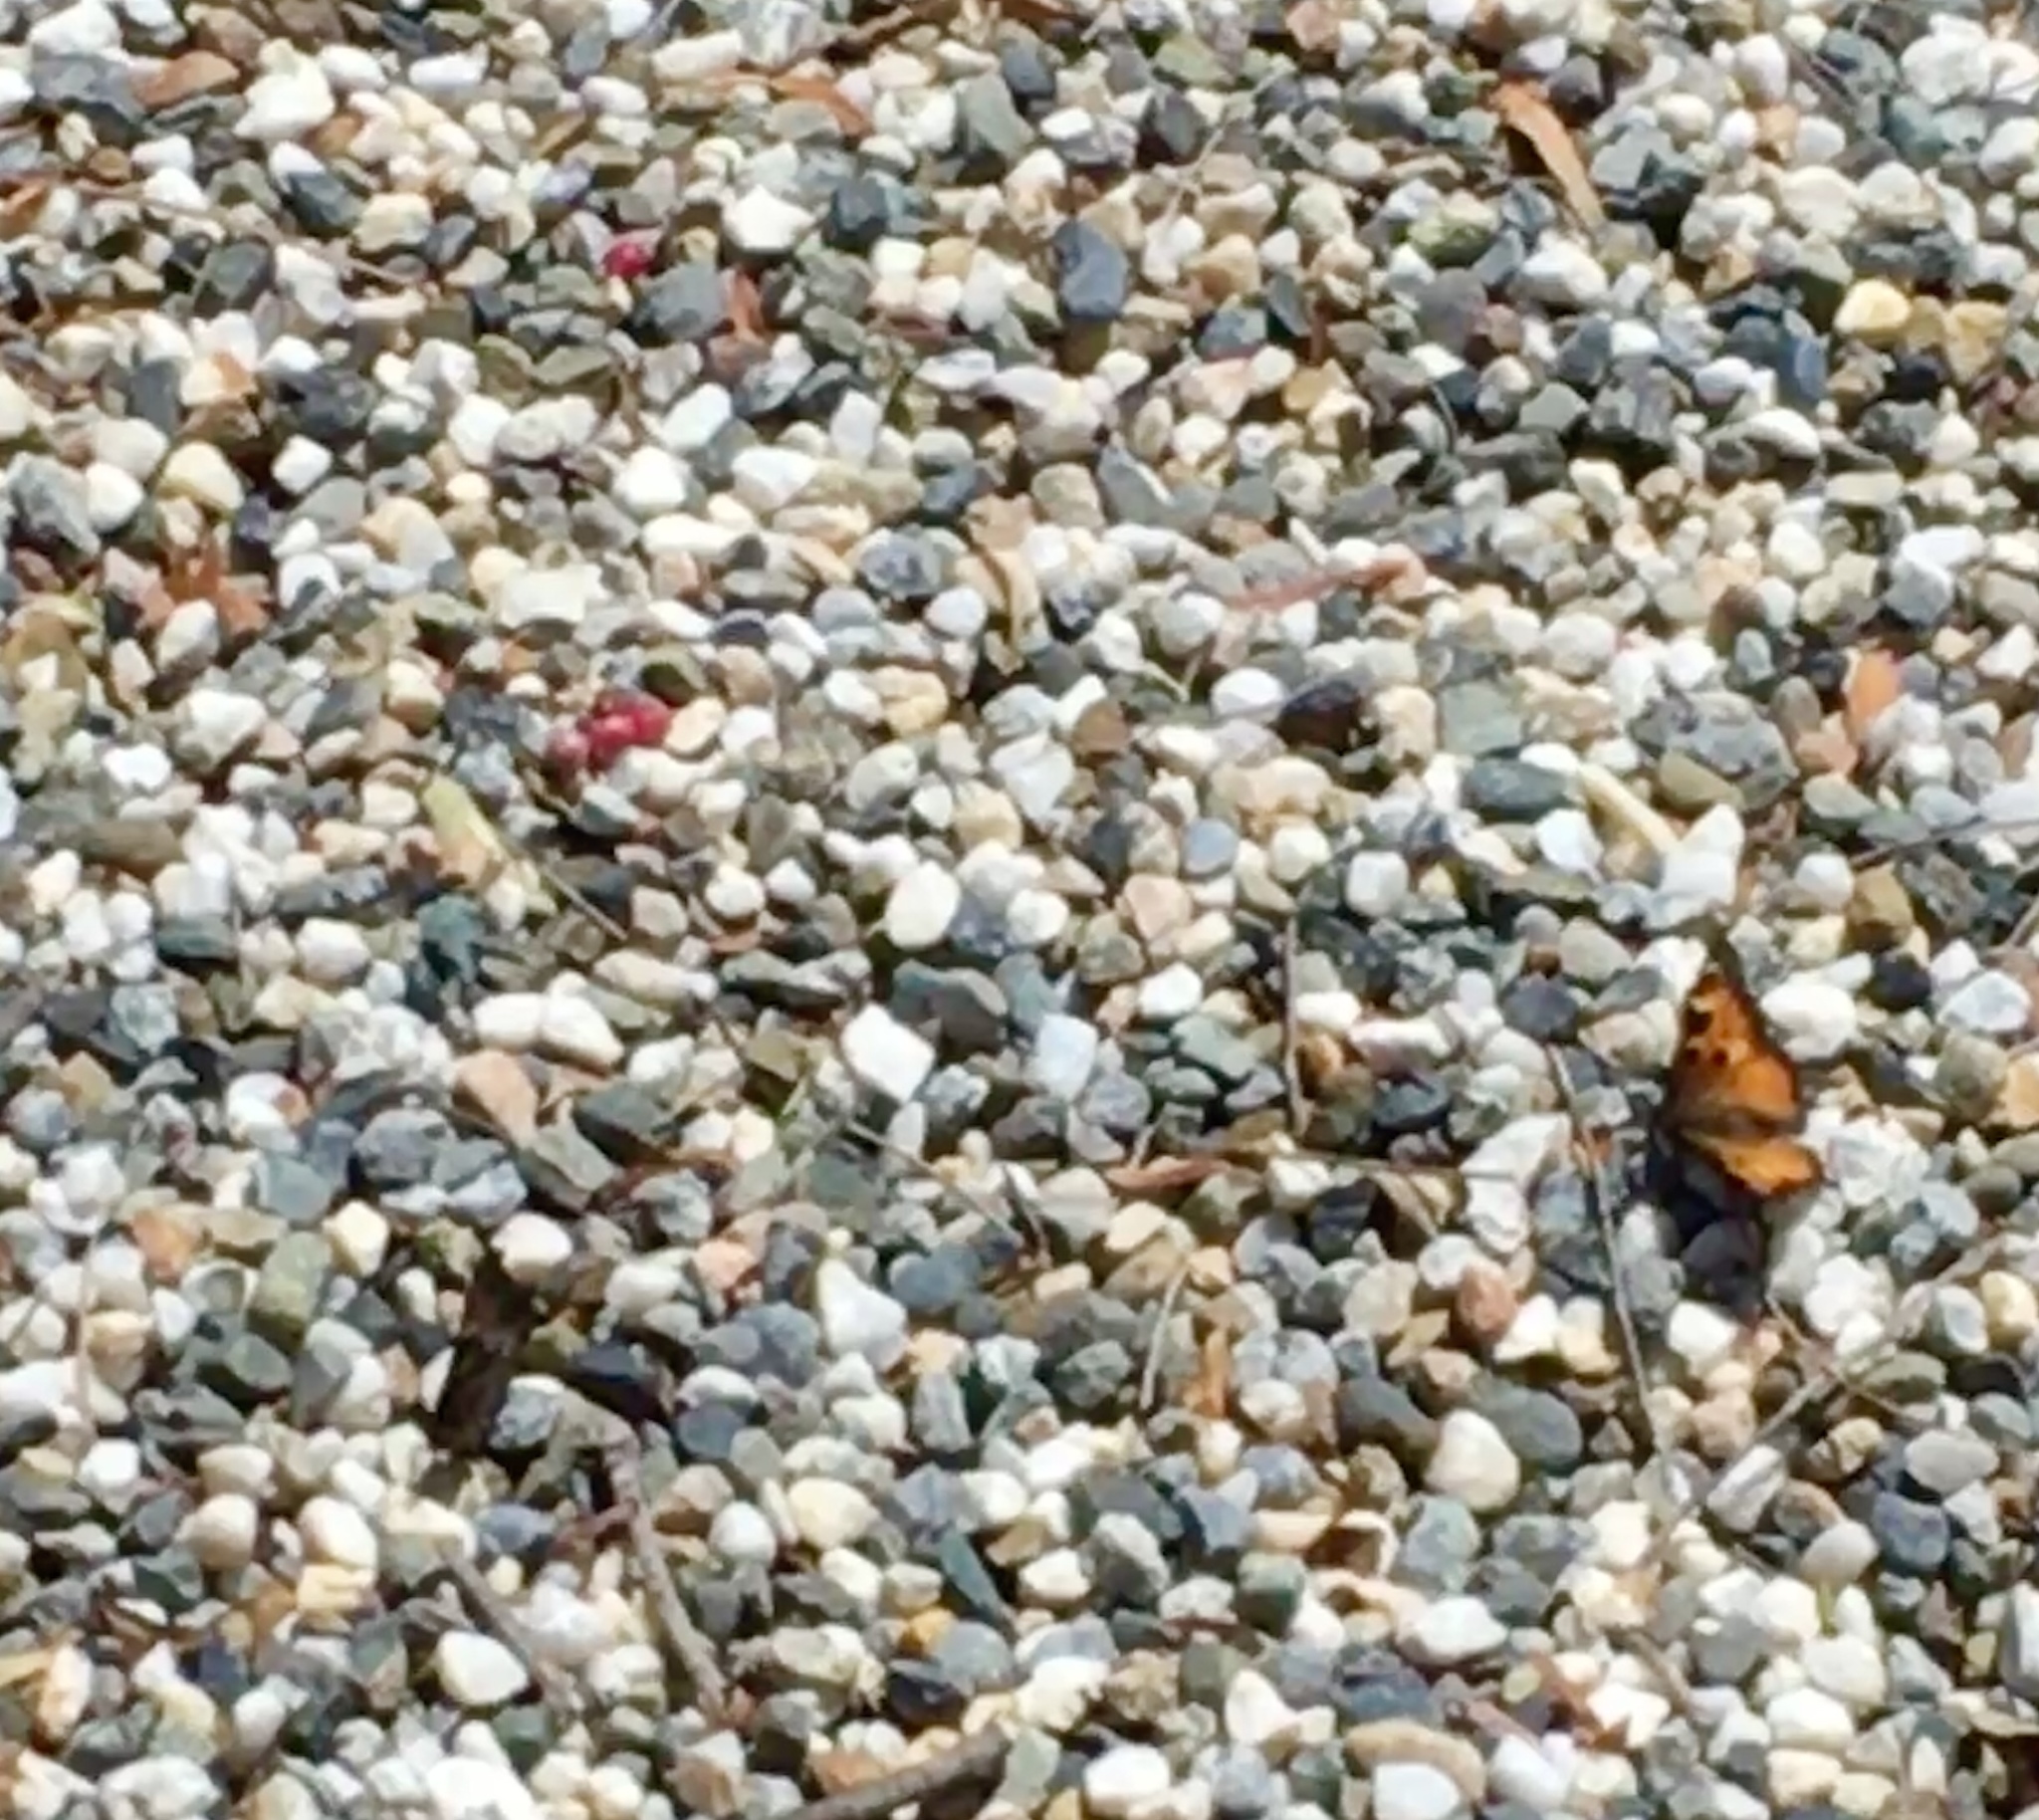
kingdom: Animalia
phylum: Arthropoda
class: Insecta
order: Lepidoptera
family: Nymphalidae
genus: Nymphalis
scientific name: Nymphalis californica
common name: California tortoiseshell
